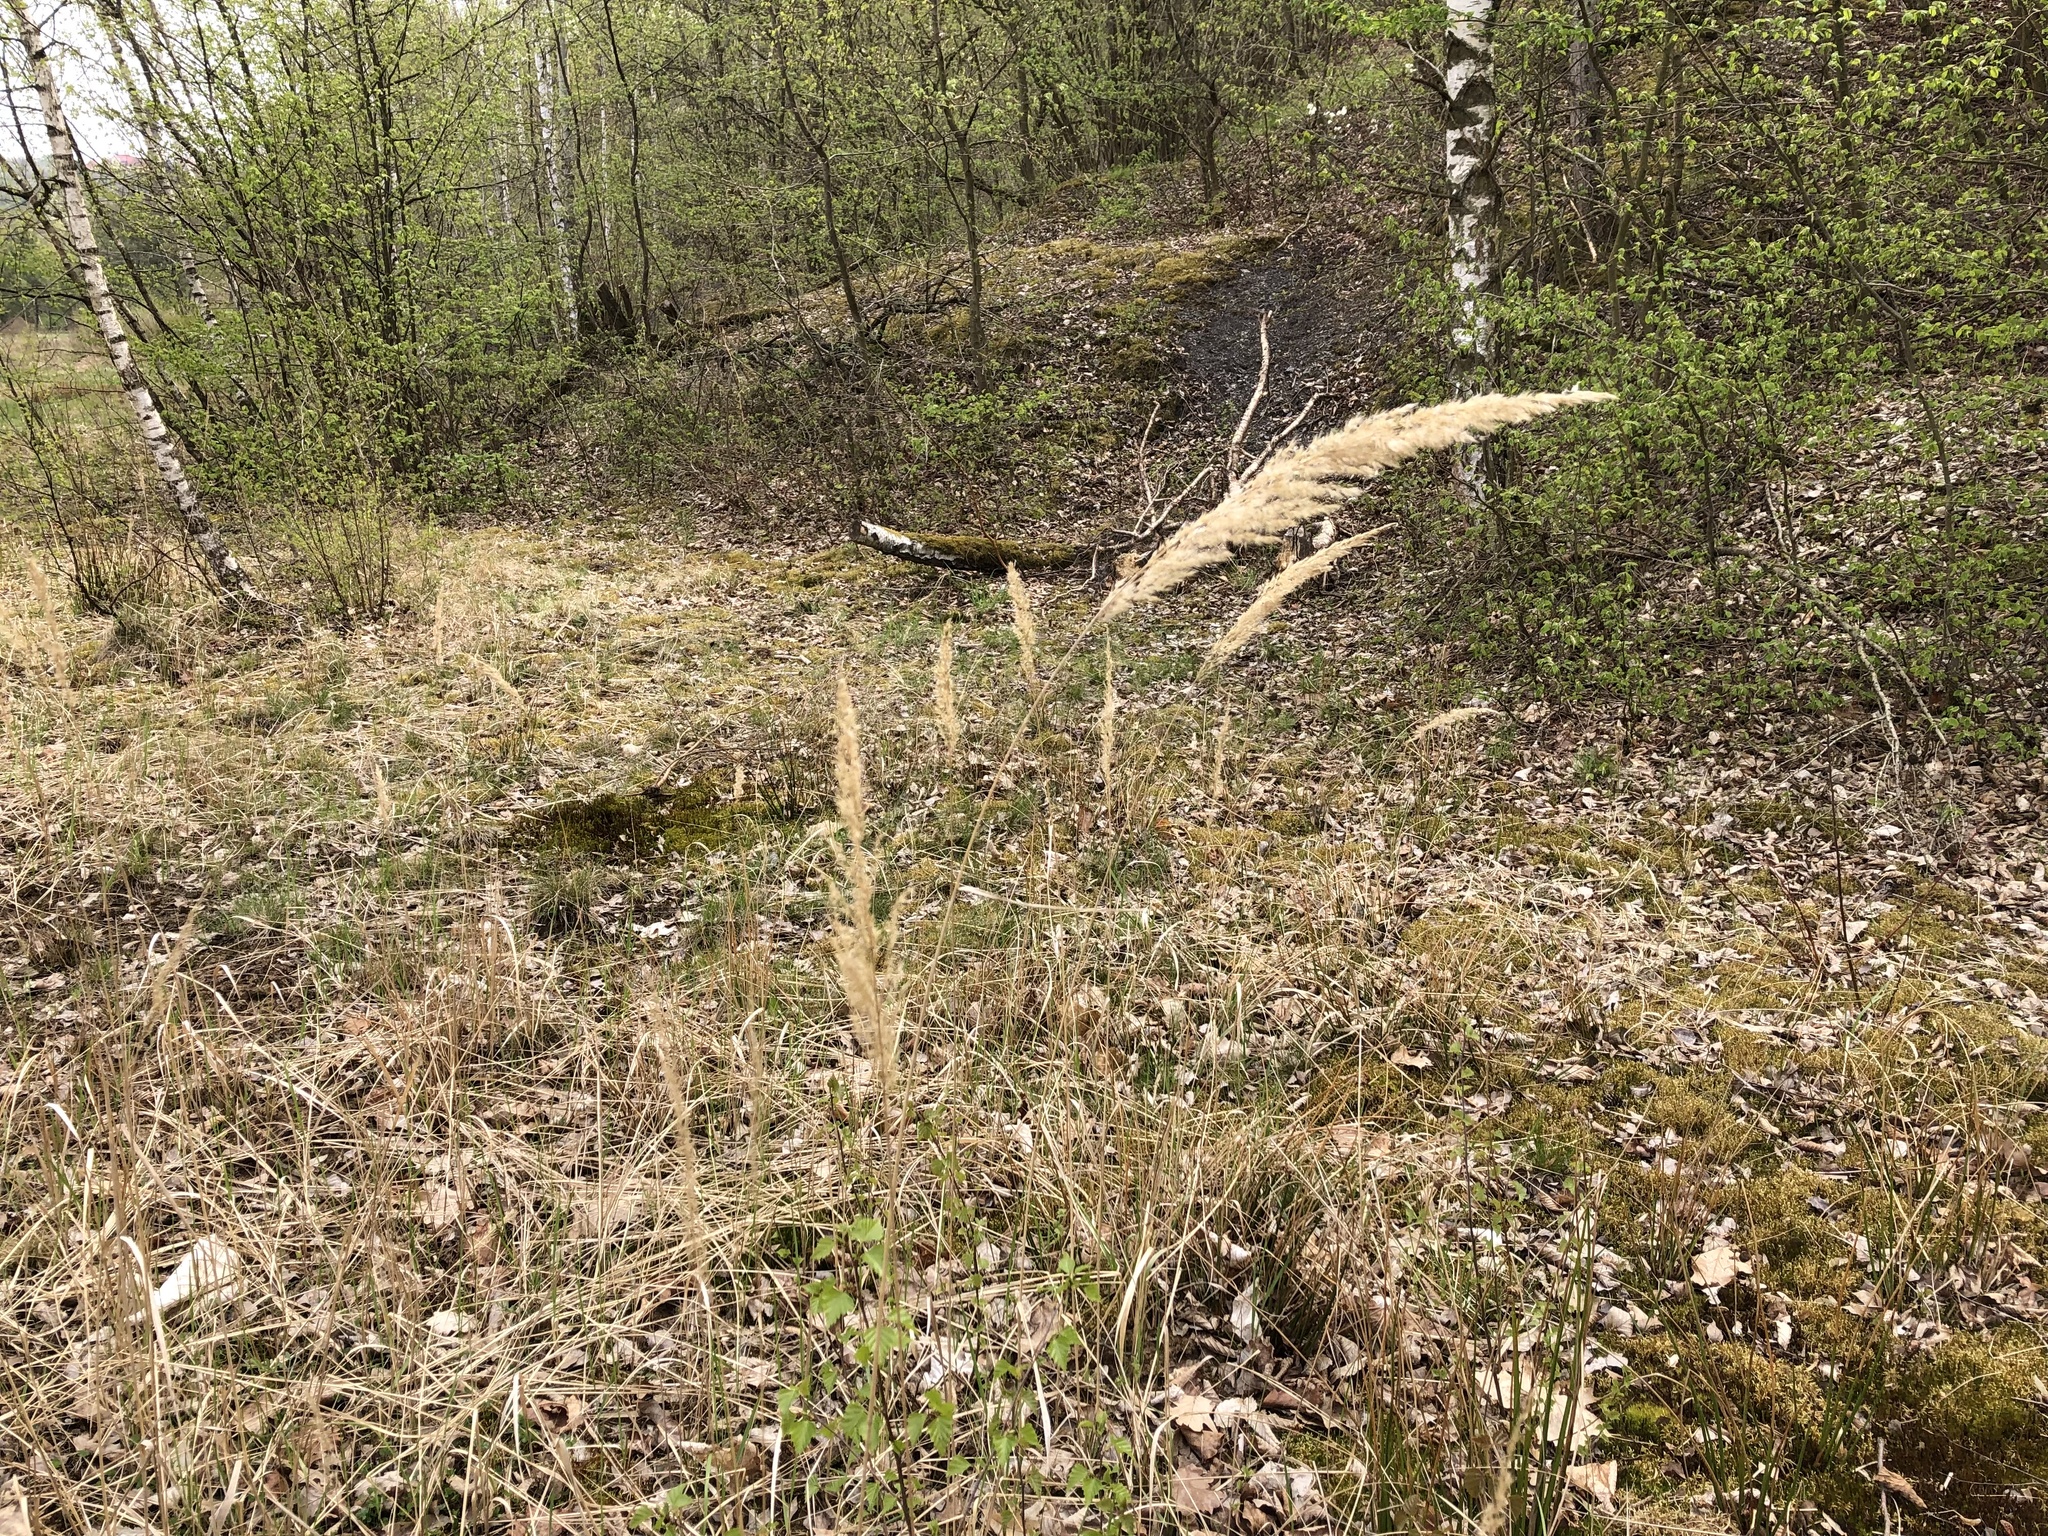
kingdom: Plantae
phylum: Tracheophyta
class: Liliopsida
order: Poales
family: Poaceae
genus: Calamagrostis
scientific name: Calamagrostis epigejos
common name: Wood small-reed
